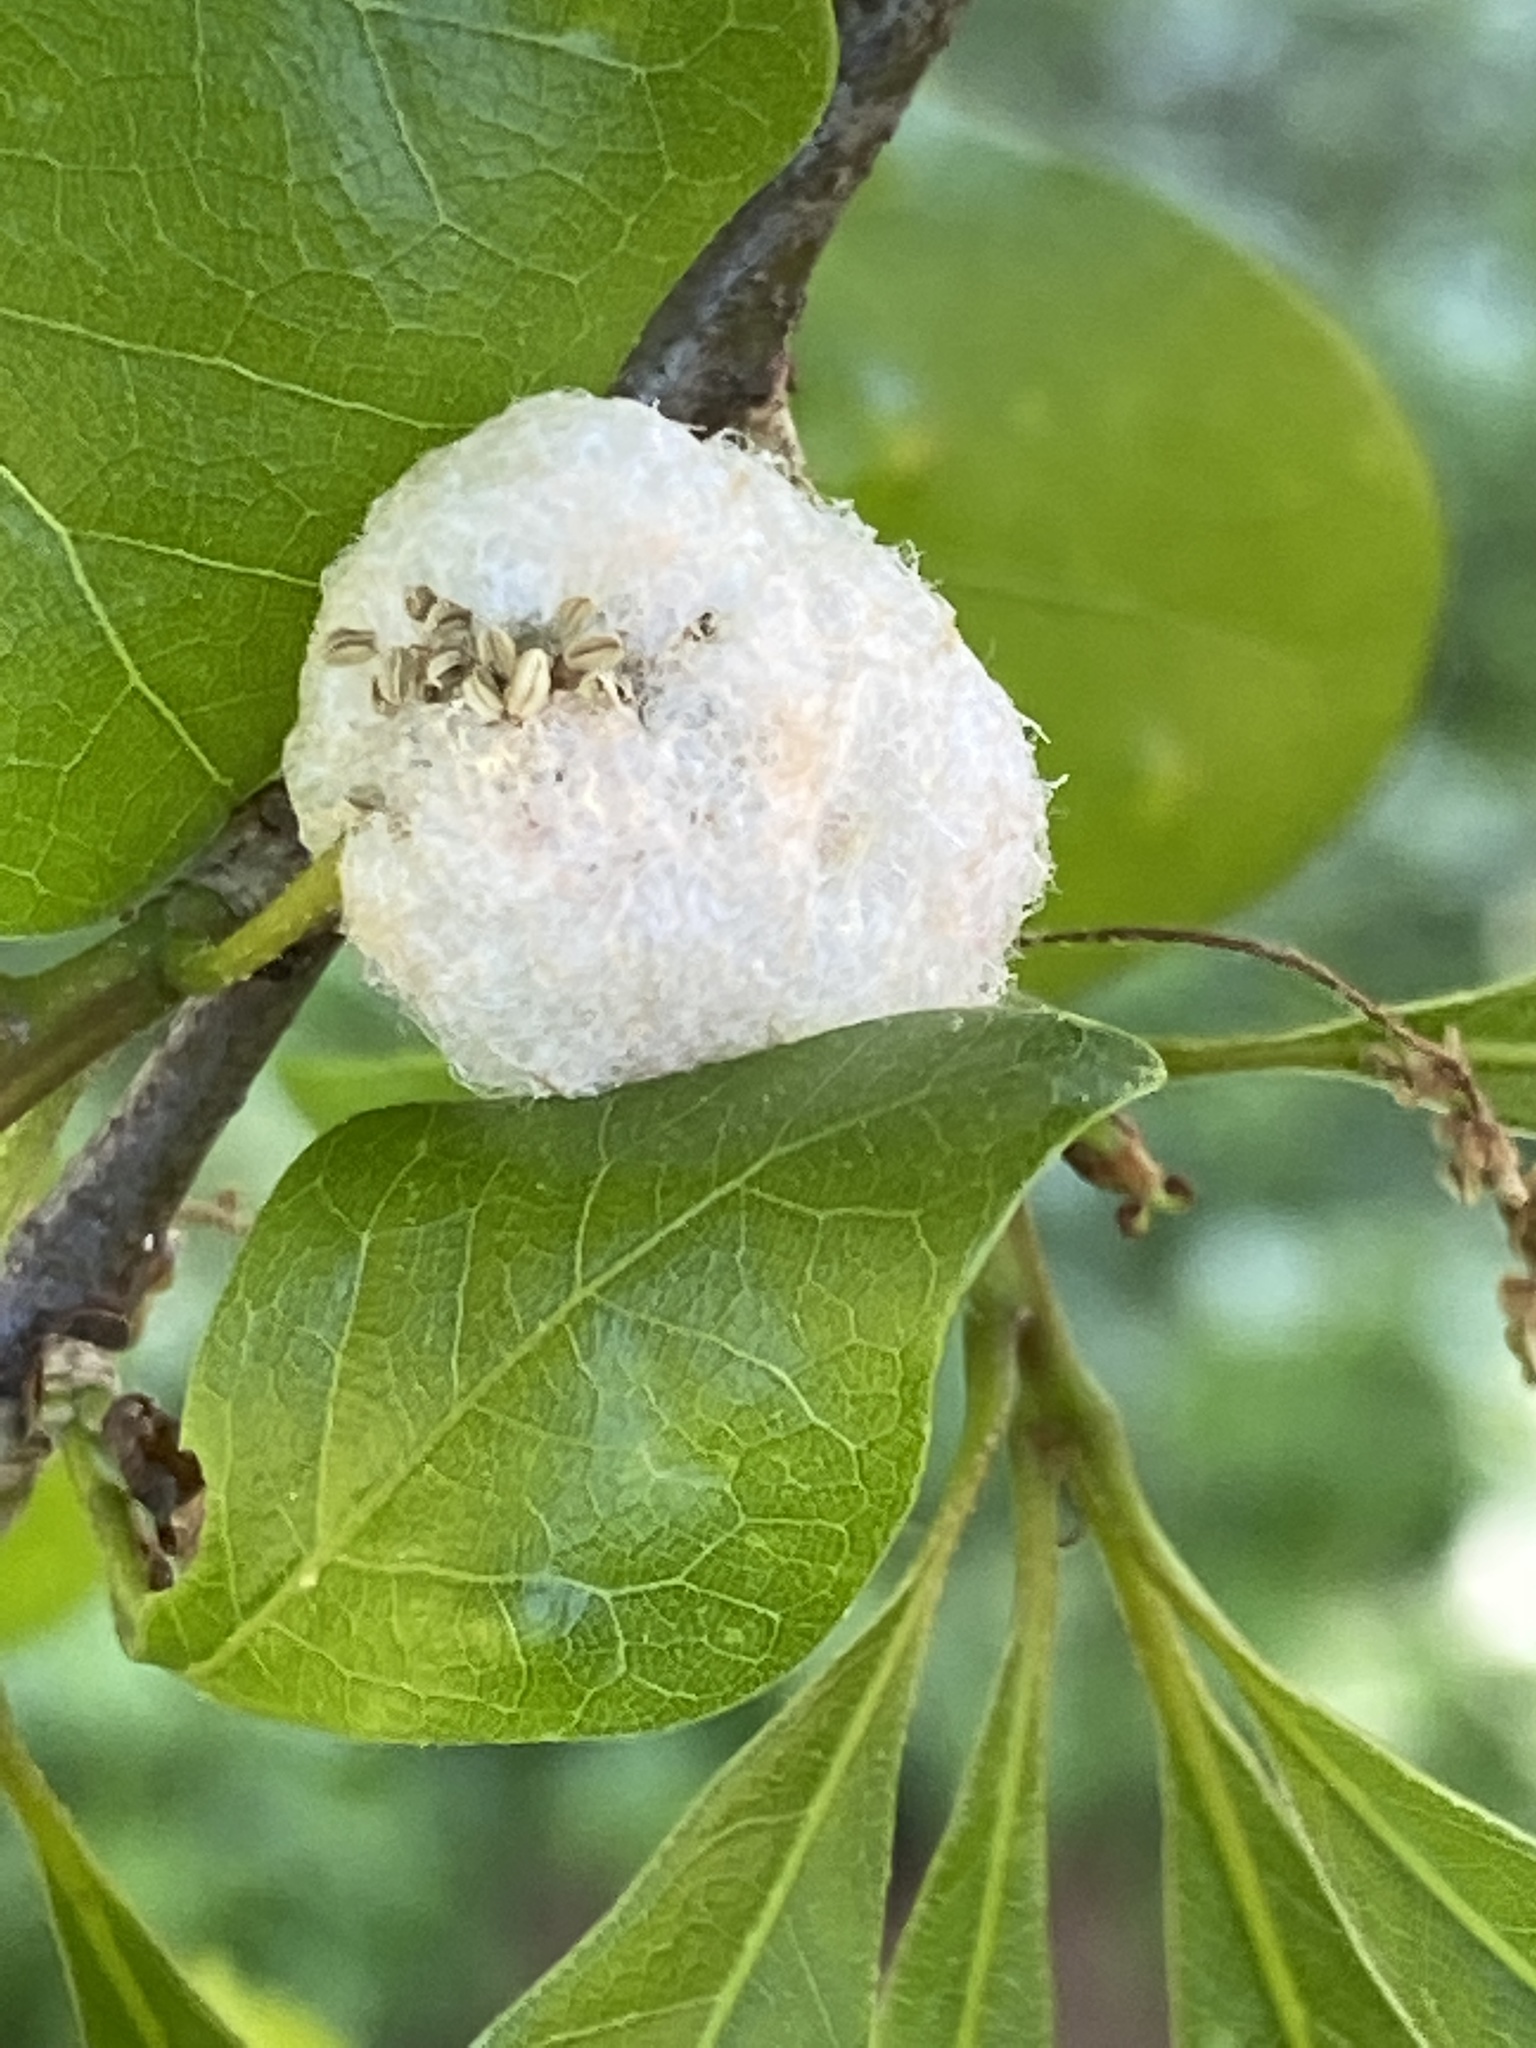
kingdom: Animalia
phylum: Arthropoda
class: Insecta
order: Hymenoptera
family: Cynipidae
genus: Callirhytis
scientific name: Callirhytis
